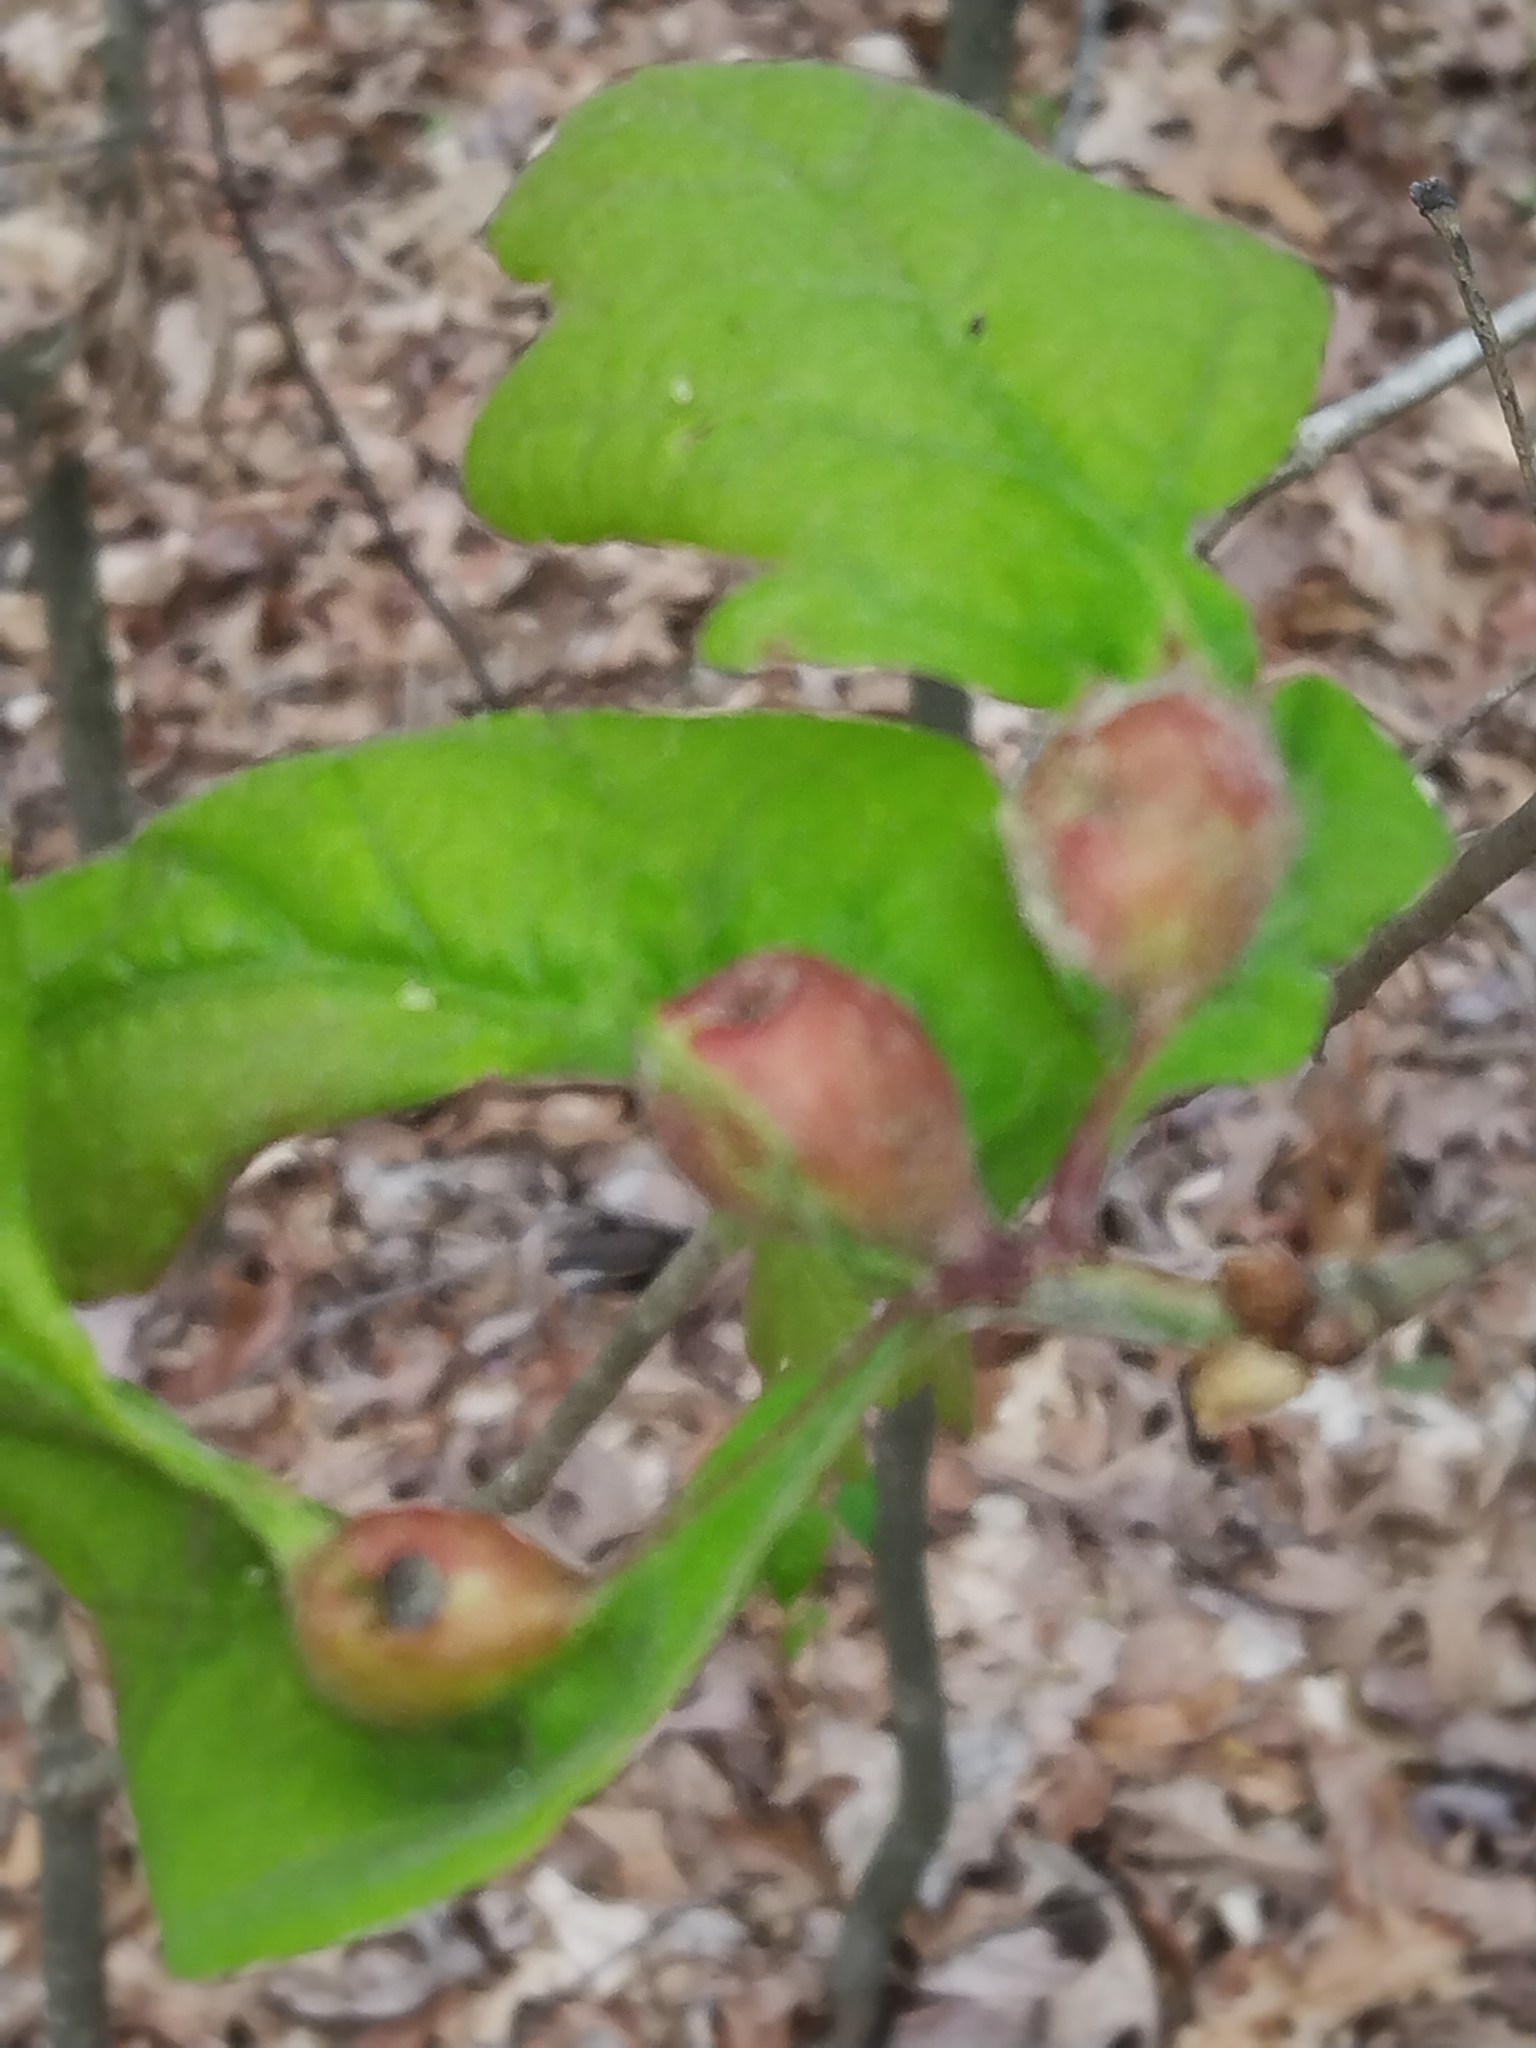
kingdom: Animalia
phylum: Arthropoda
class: Insecta
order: Hymenoptera
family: Cynipidae
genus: Andricus
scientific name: Andricus
